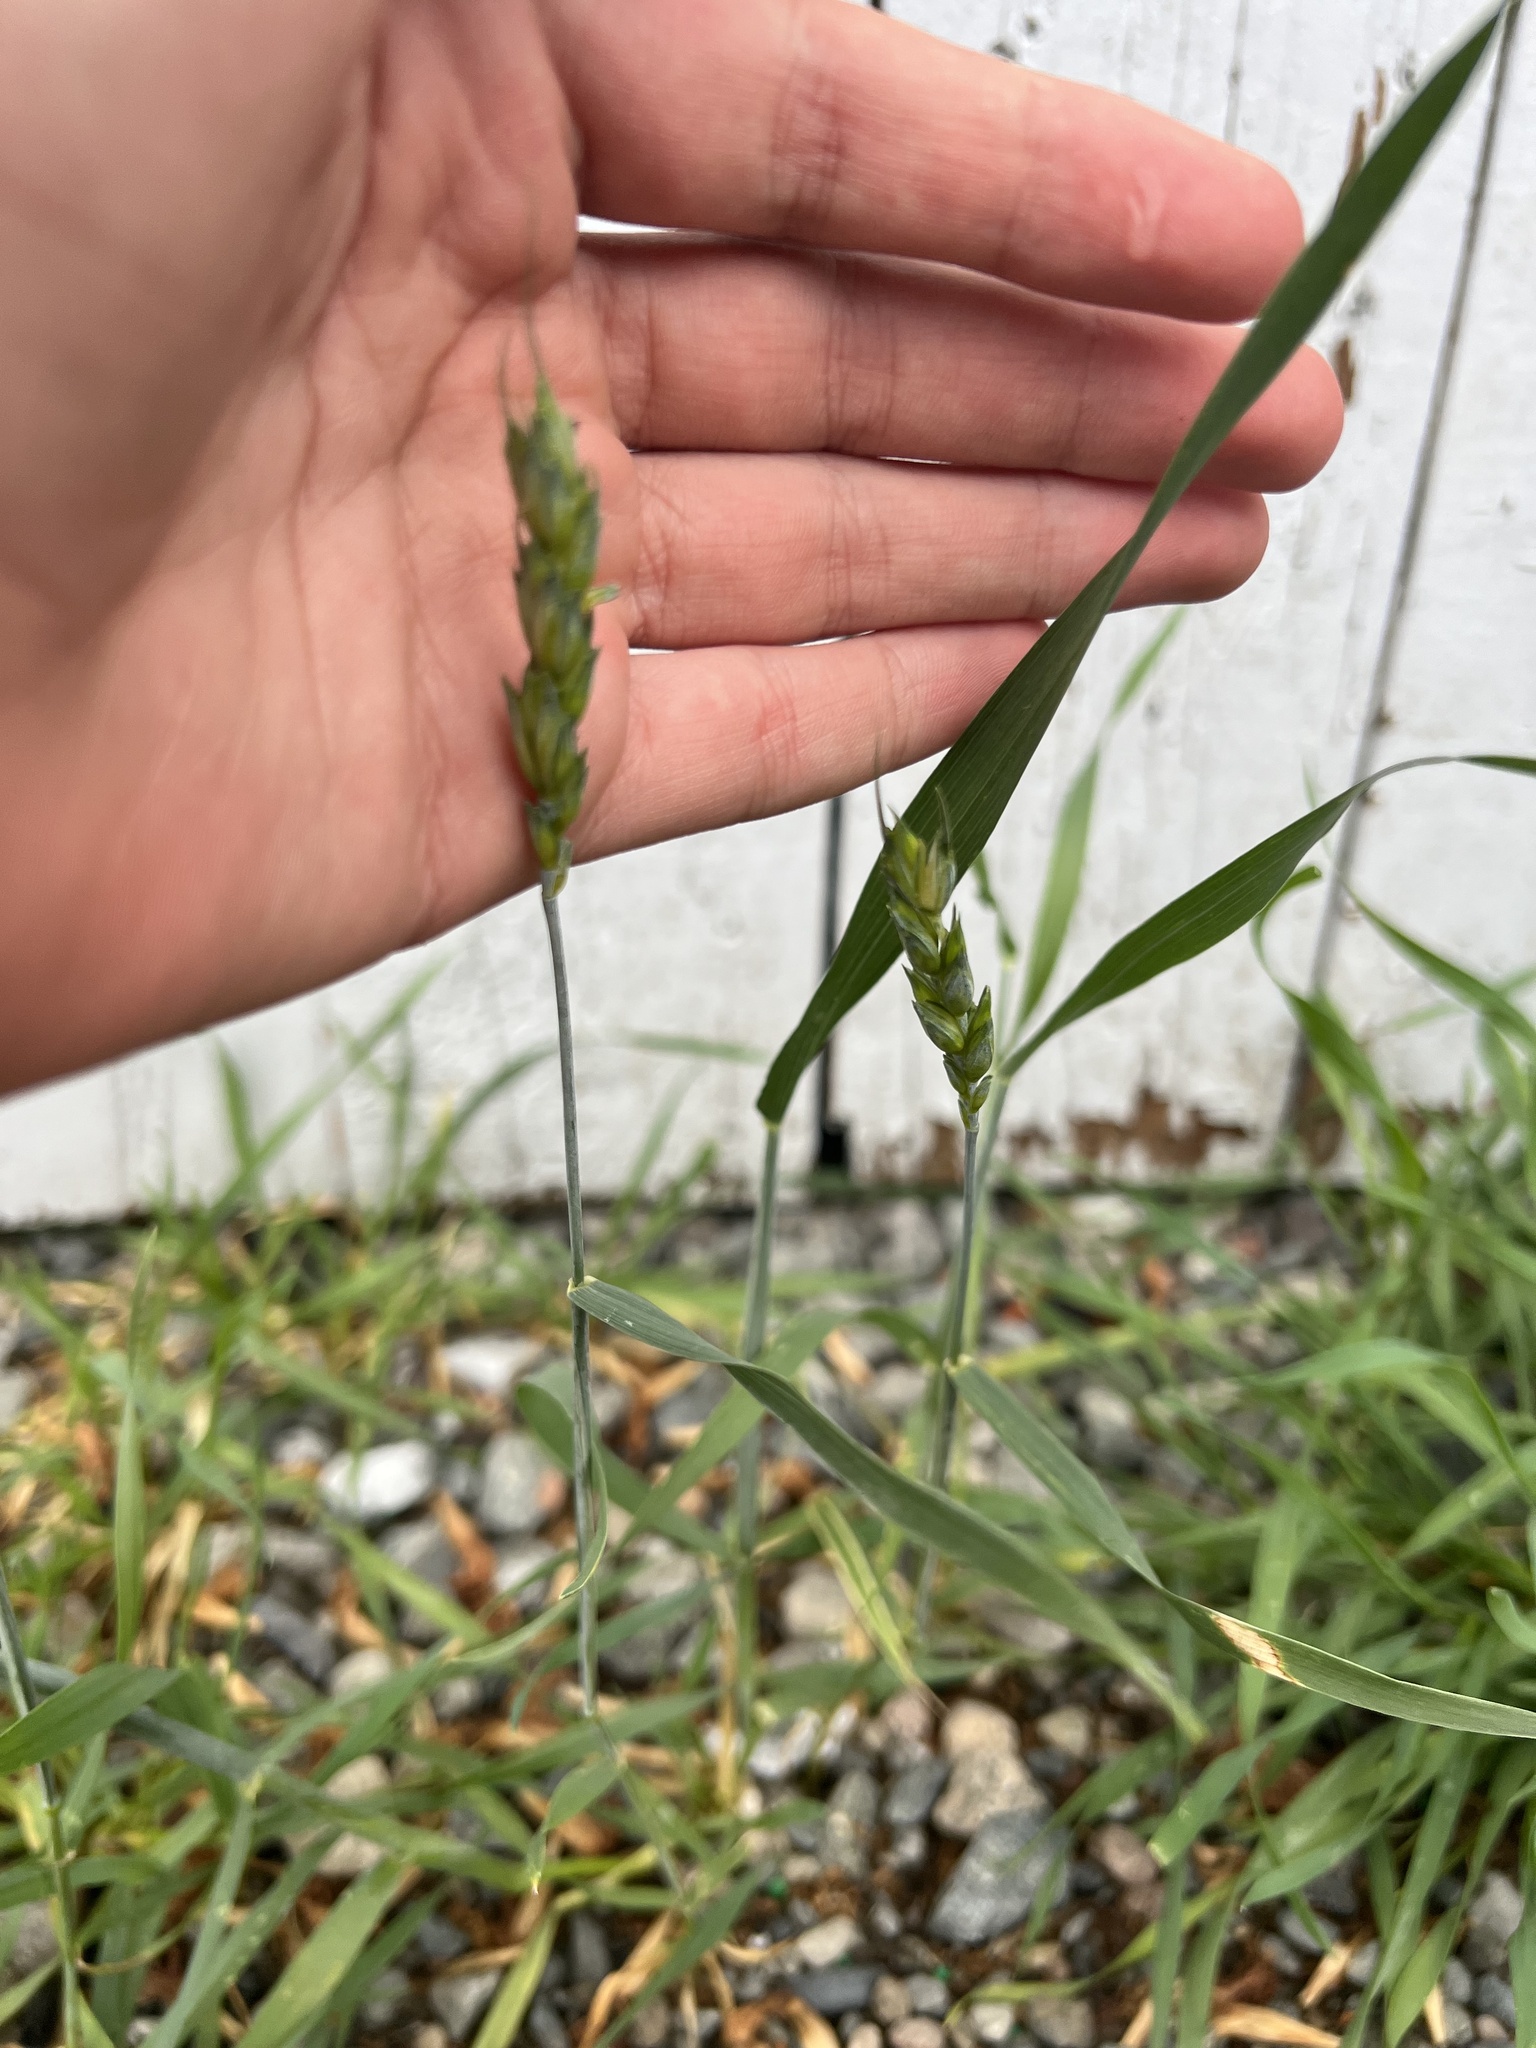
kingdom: Plantae
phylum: Tracheophyta
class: Liliopsida
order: Poales
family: Poaceae
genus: Triticum
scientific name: Triticum aestivum
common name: Common wheat
